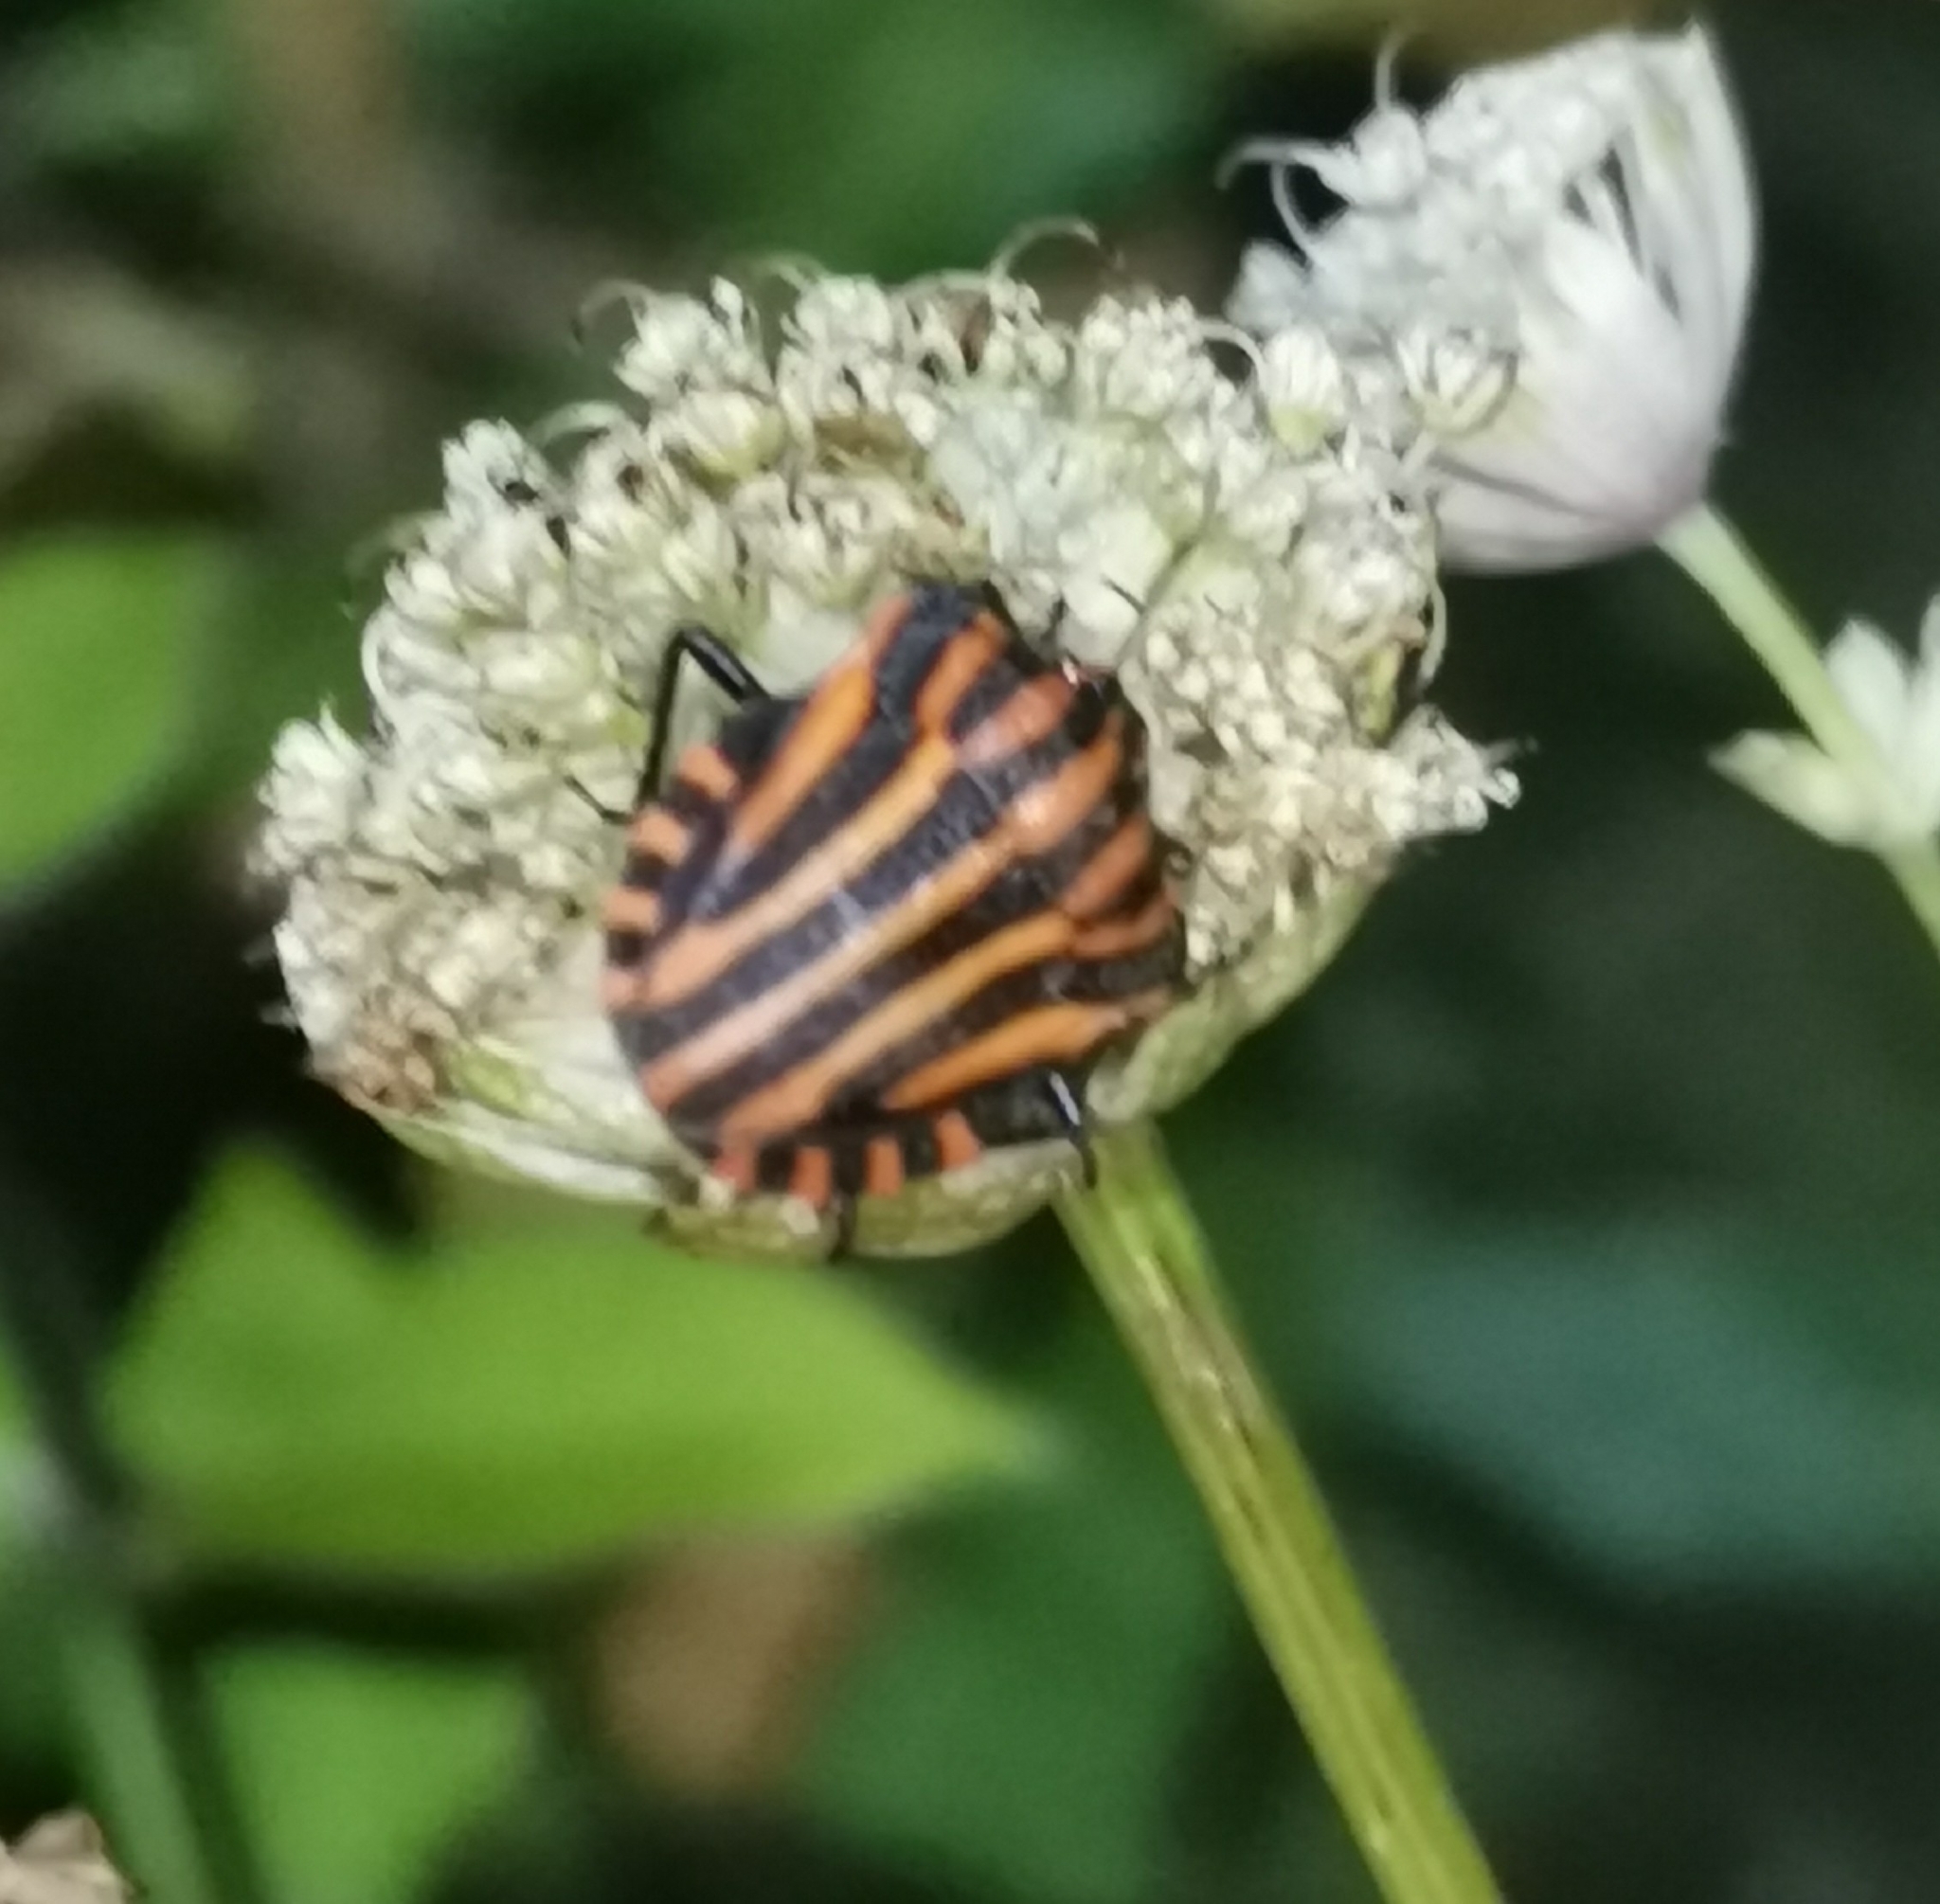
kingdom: Animalia
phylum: Arthropoda
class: Insecta
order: Hemiptera
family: Pentatomidae
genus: Graphosoma
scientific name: Graphosoma italicum
